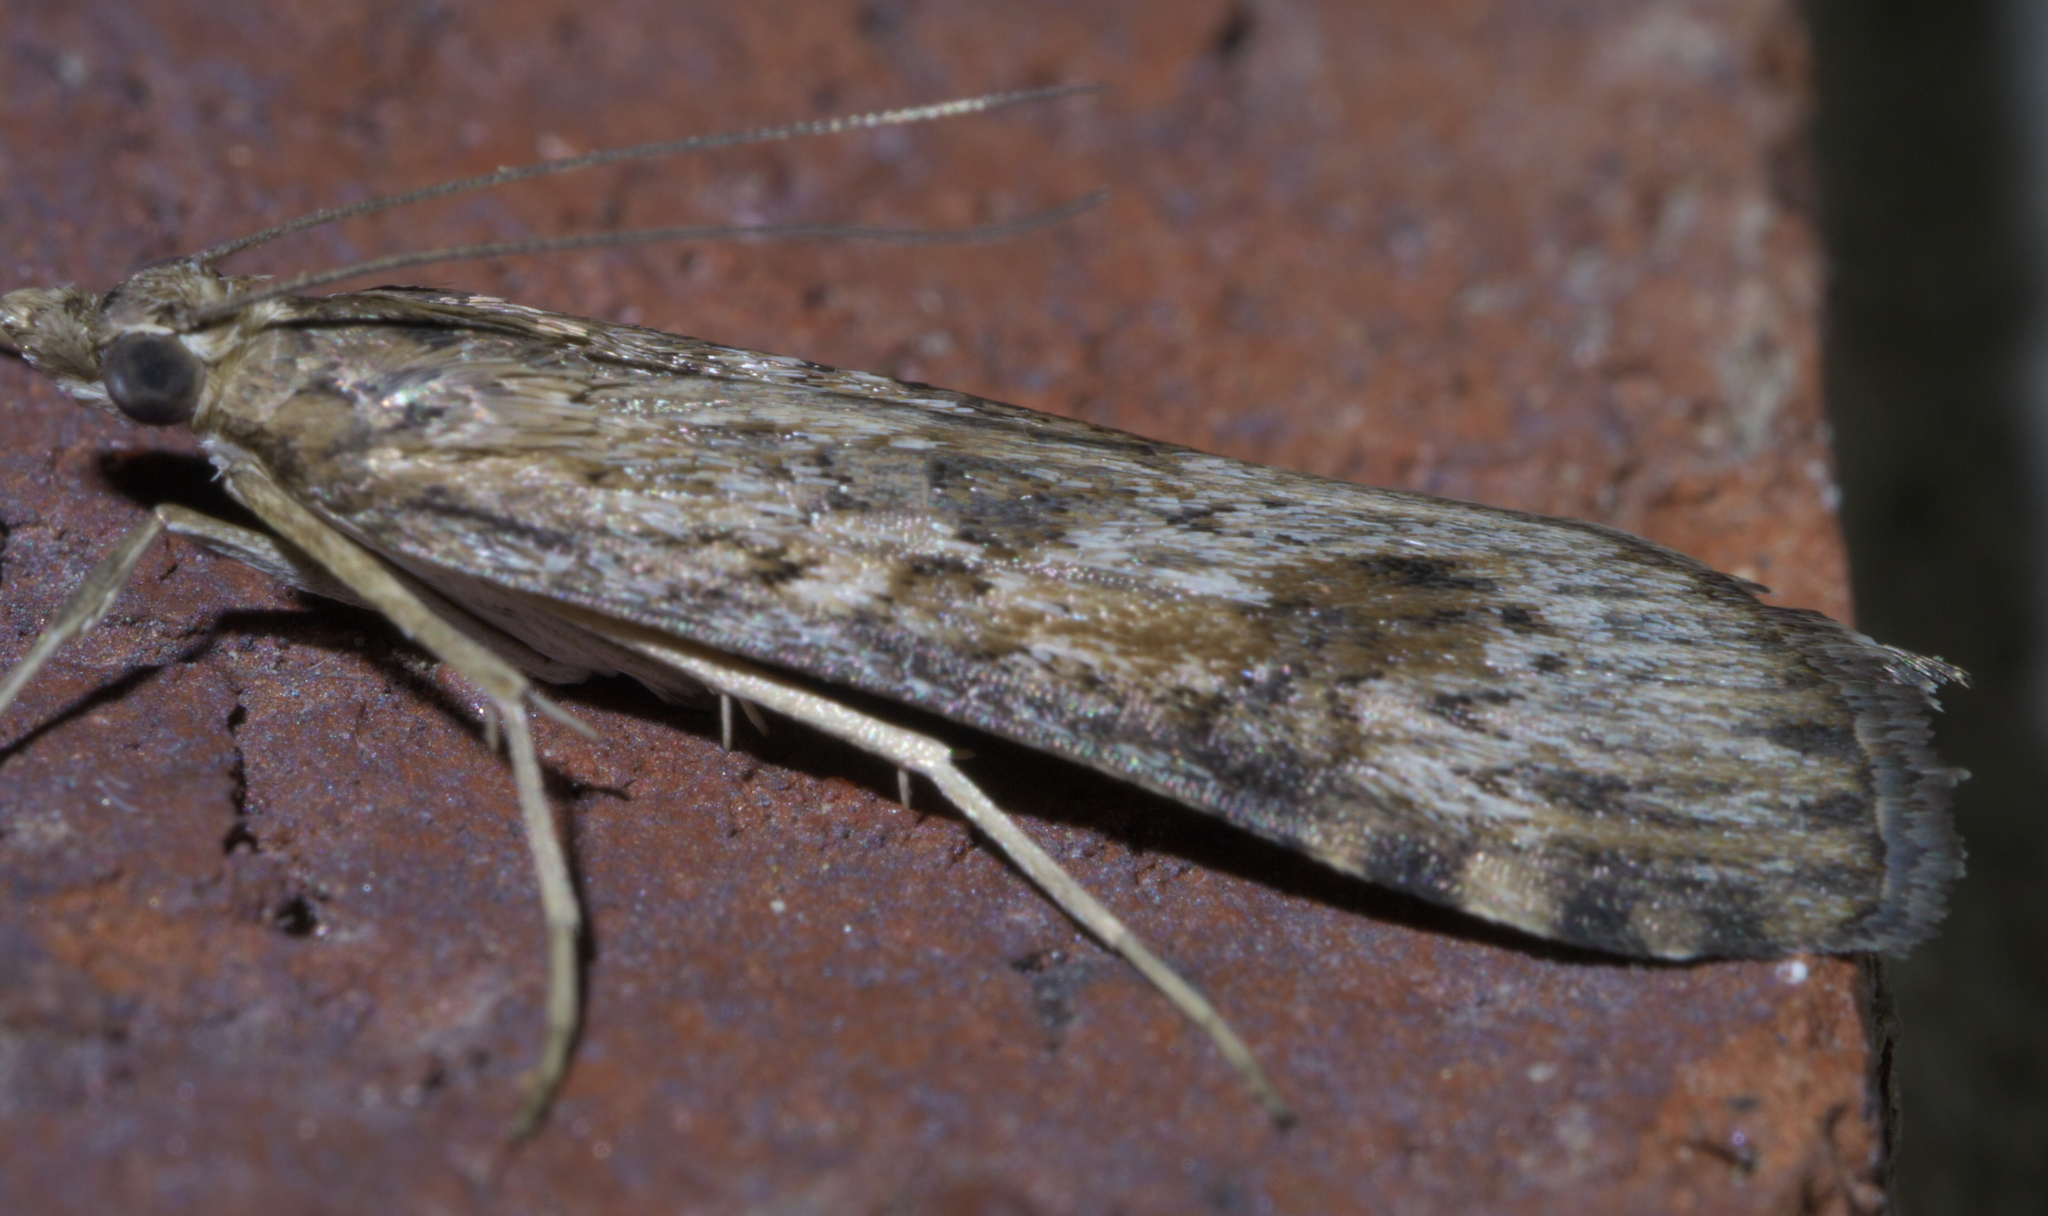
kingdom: Animalia
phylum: Arthropoda
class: Insecta
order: Lepidoptera
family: Crambidae
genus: Nomophila
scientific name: Nomophila nearctica
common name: American rush veneer
